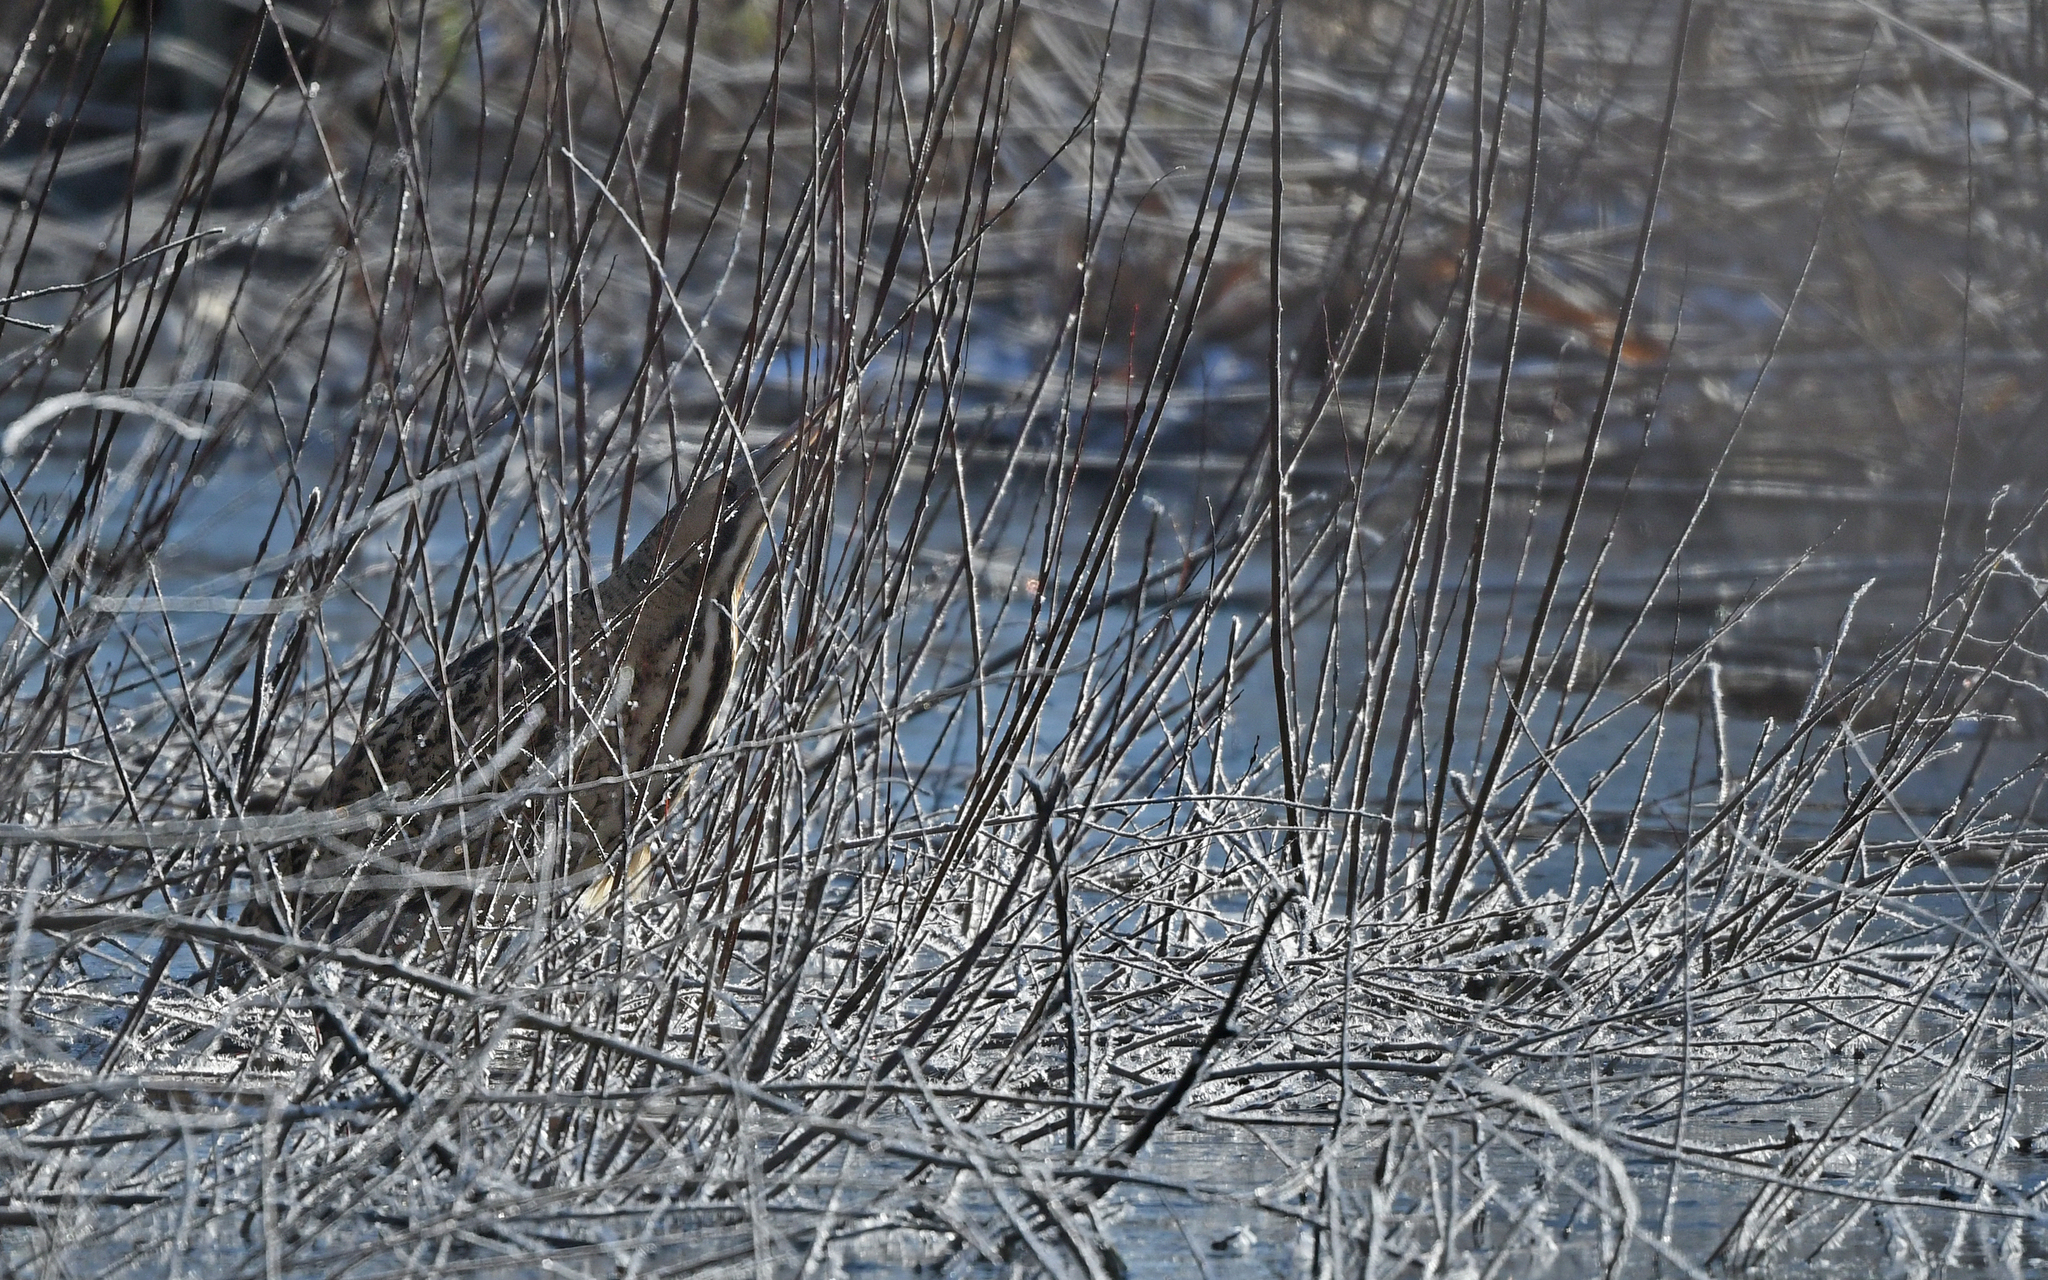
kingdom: Animalia
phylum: Chordata
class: Aves
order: Pelecaniformes
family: Ardeidae
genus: Botaurus
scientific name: Botaurus stellaris
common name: Eurasian bittern
